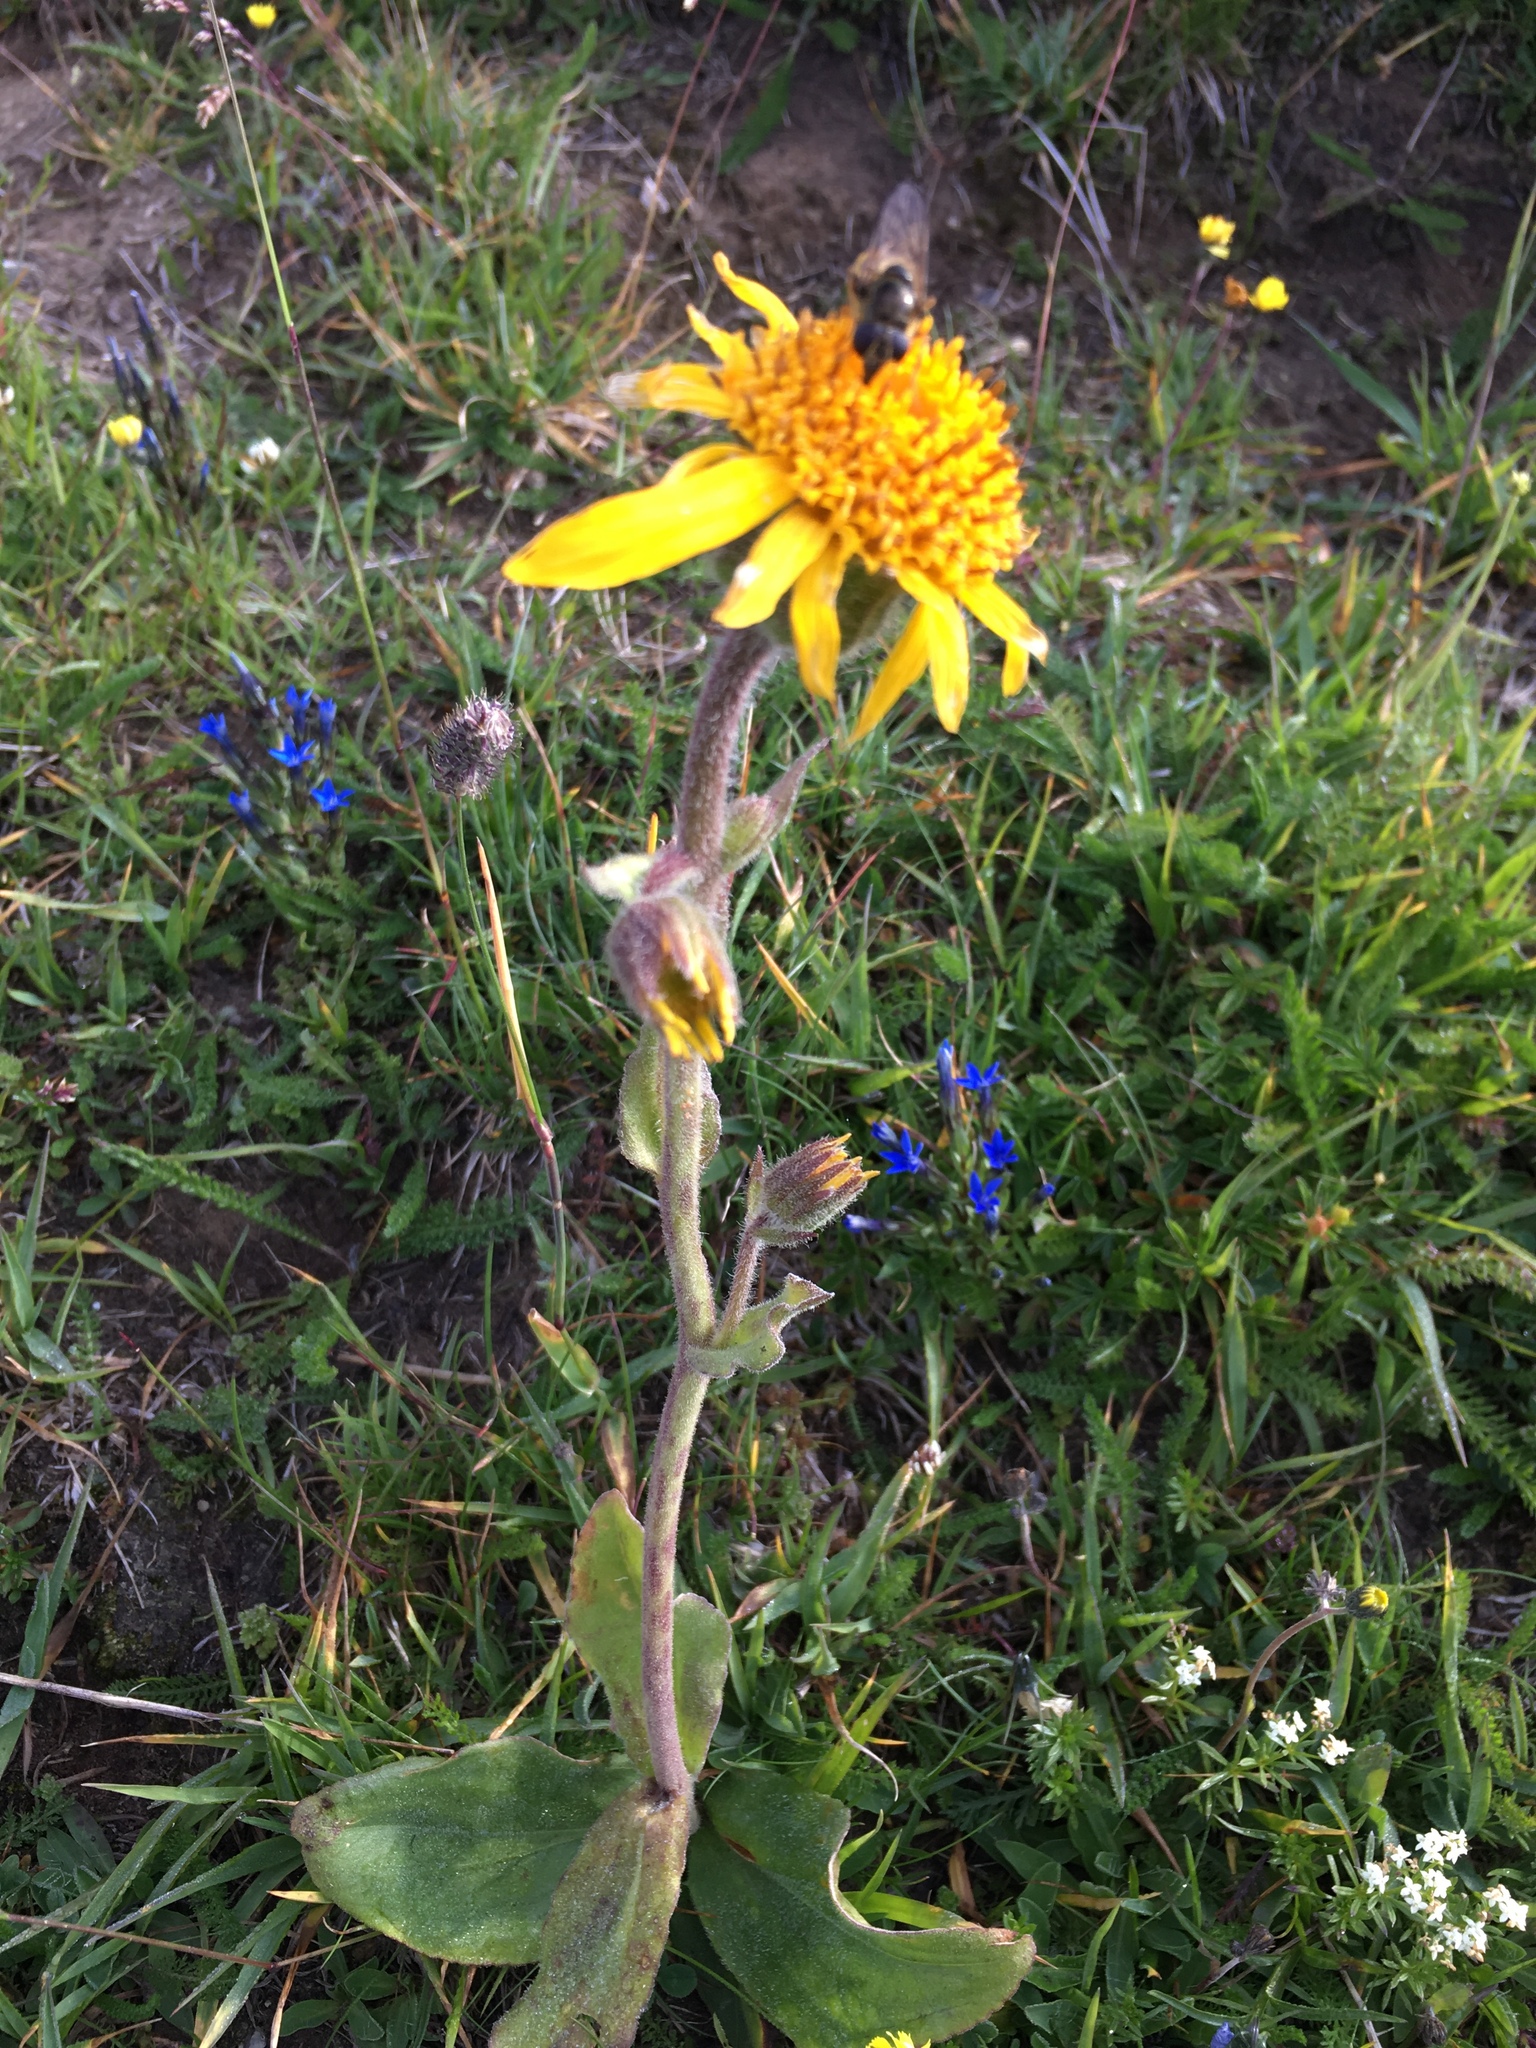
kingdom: Plantae
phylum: Tracheophyta
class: Magnoliopsida
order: Asterales
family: Asteraceae
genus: Arnica
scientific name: Arnica montana
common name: Leopard's bane
